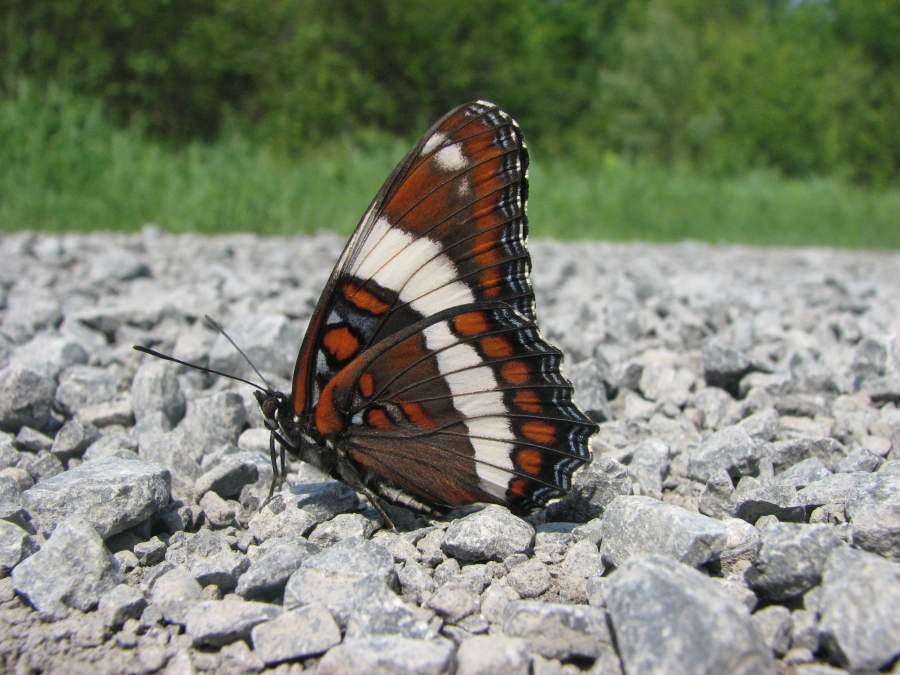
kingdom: Animalia
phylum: Arthropoda
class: Insecta
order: Lepidoptera
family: Nymphalidae
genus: Limenitis
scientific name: Limenitis arthemis
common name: Red-spotted admiral
